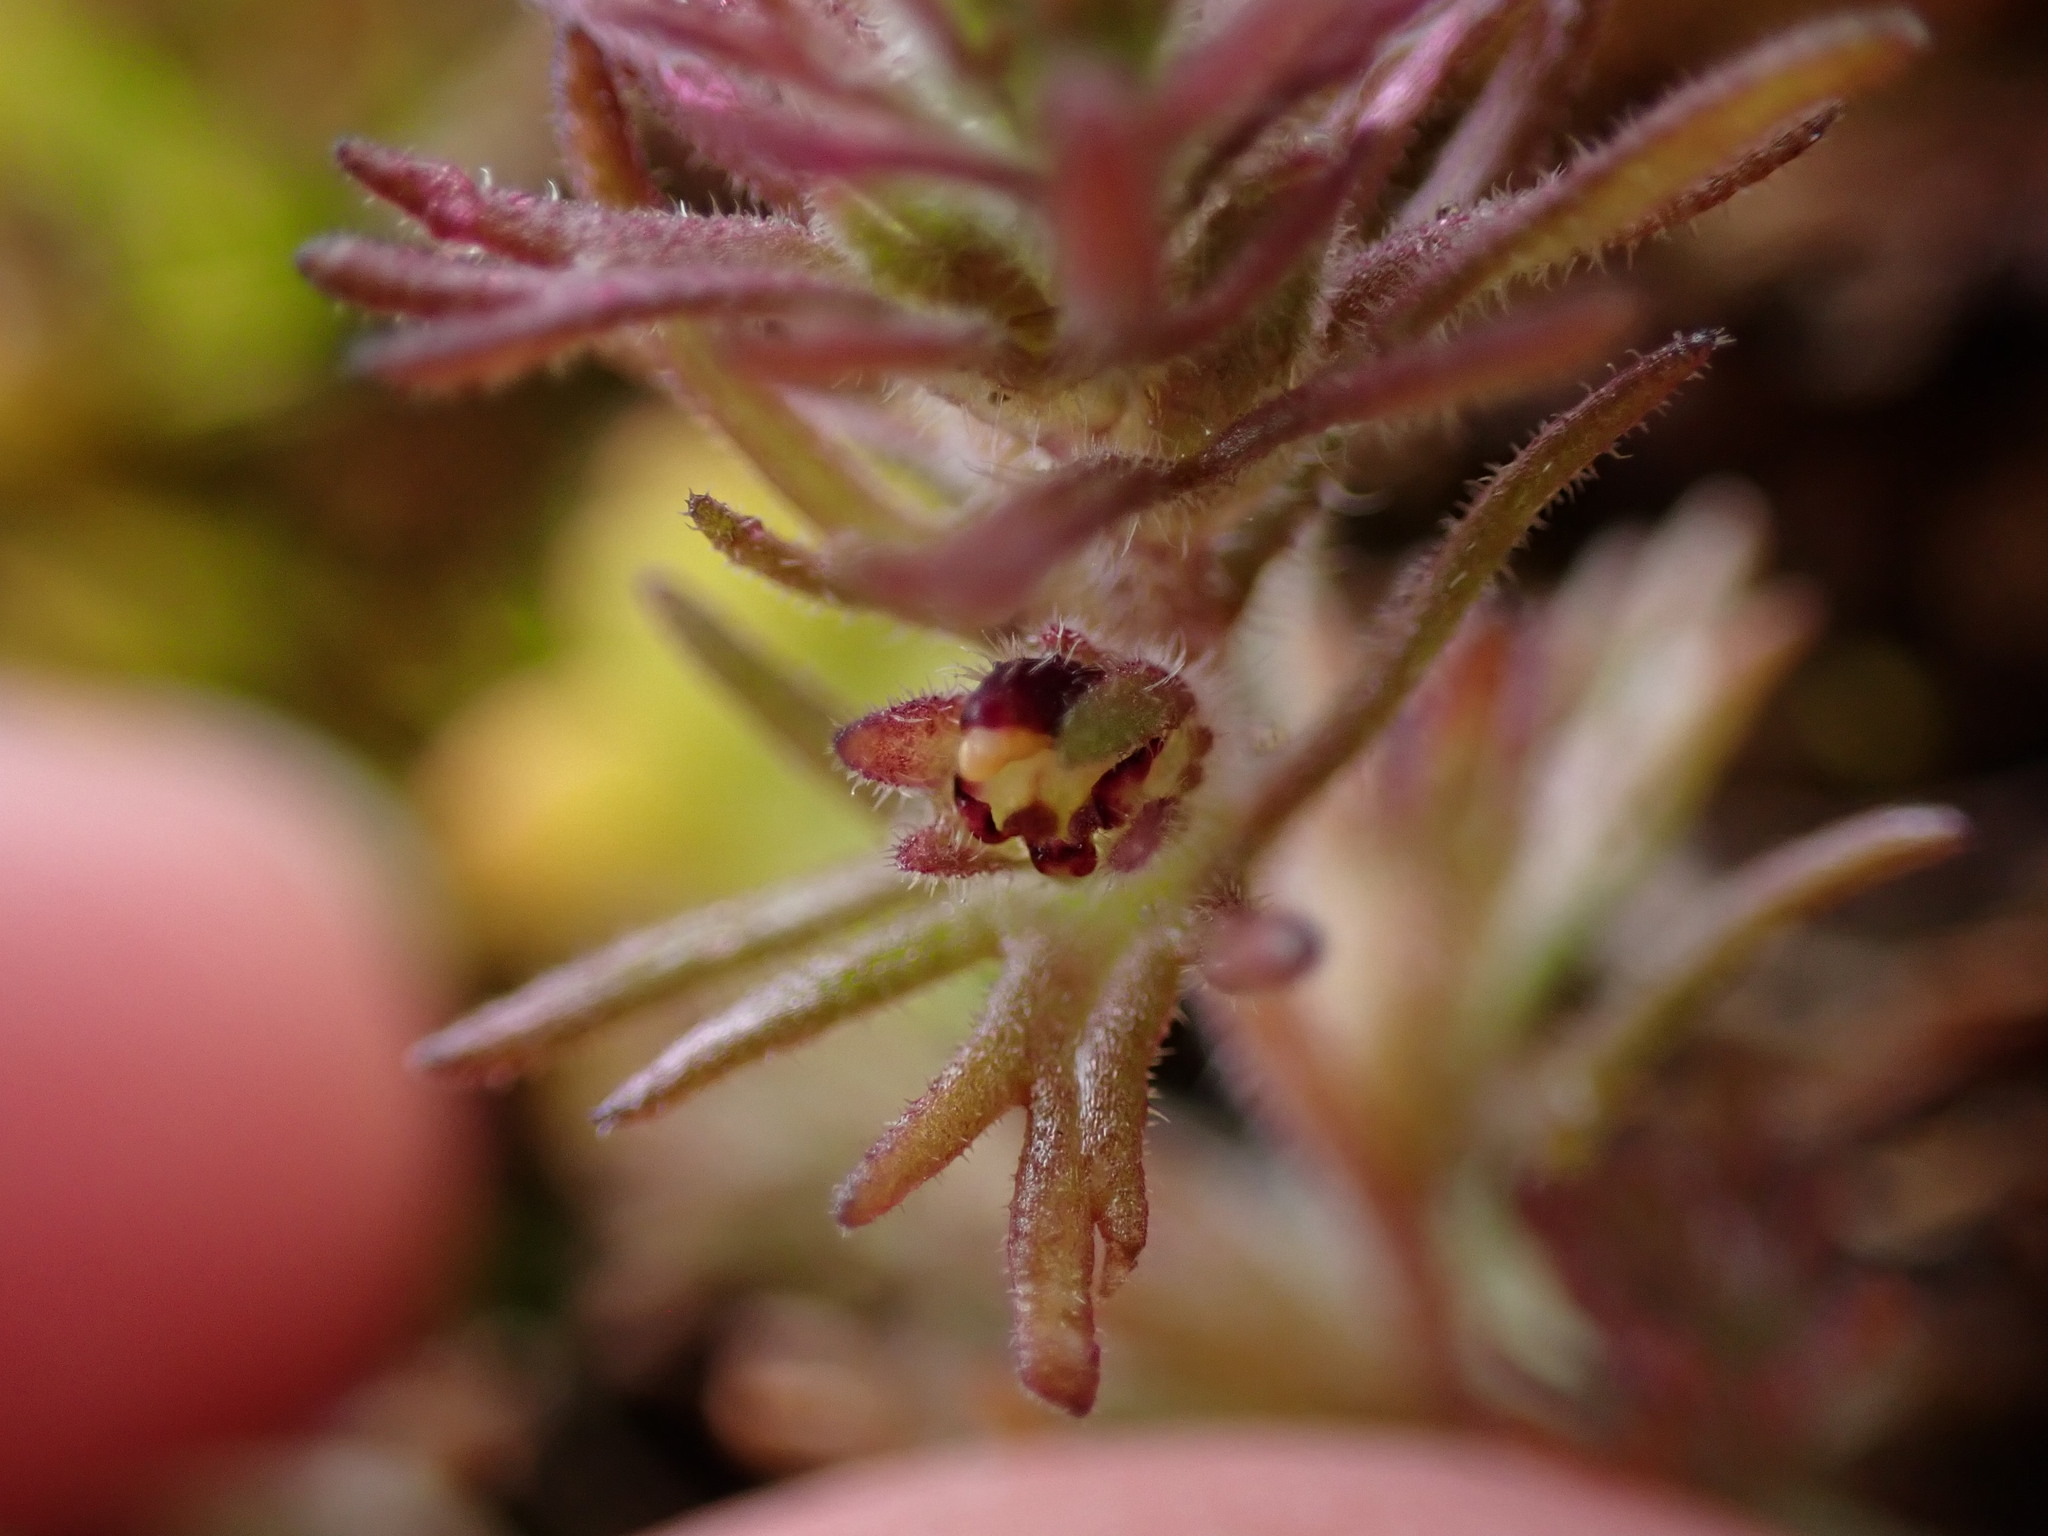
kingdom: Plantae
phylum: Tracheophyta
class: Magnoliopsida
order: Lamiales
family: Orobanchaceae
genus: Triphysaria
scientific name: Triphysaria pusilla
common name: Dwarf false owl-clover
